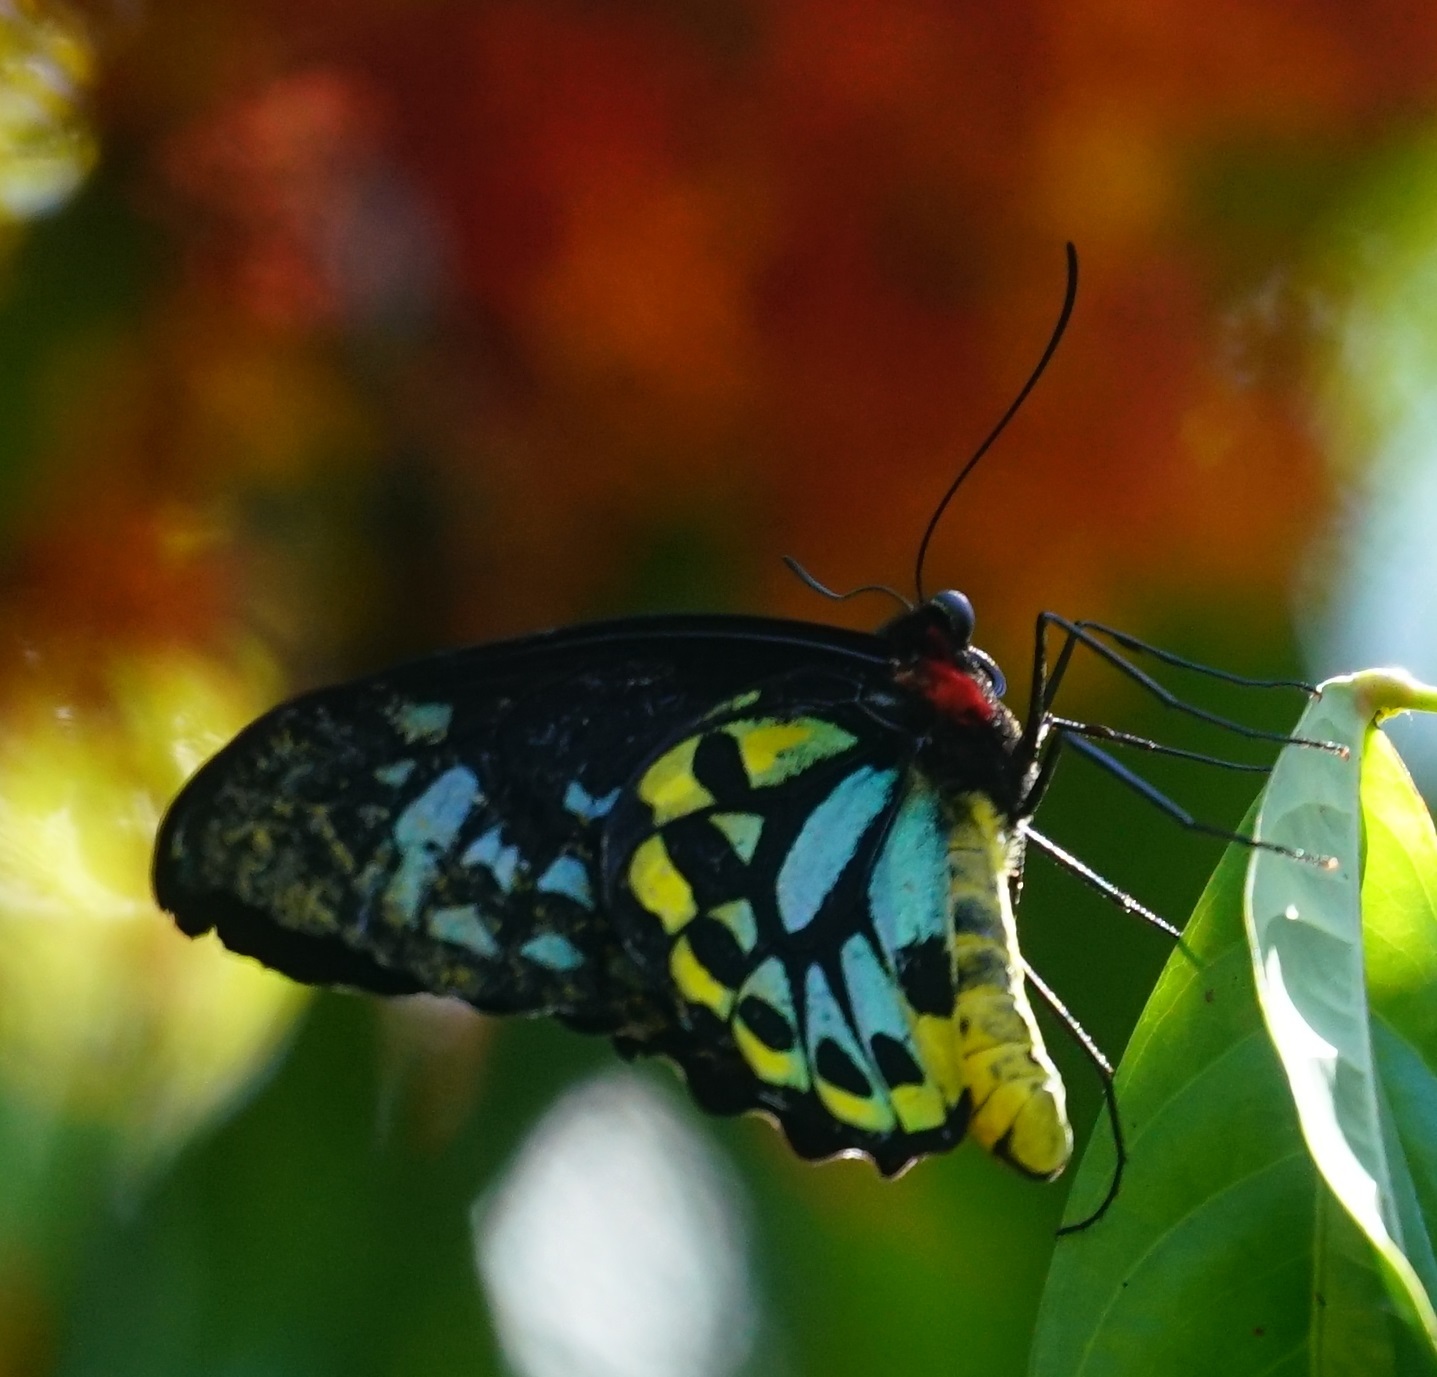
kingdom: Animalia
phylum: Arthropoda
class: Insecta
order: Lepidoptera
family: Papilionidae
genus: Ornithoptera
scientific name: Ornithoptera euphorion
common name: Cairns birdwing
